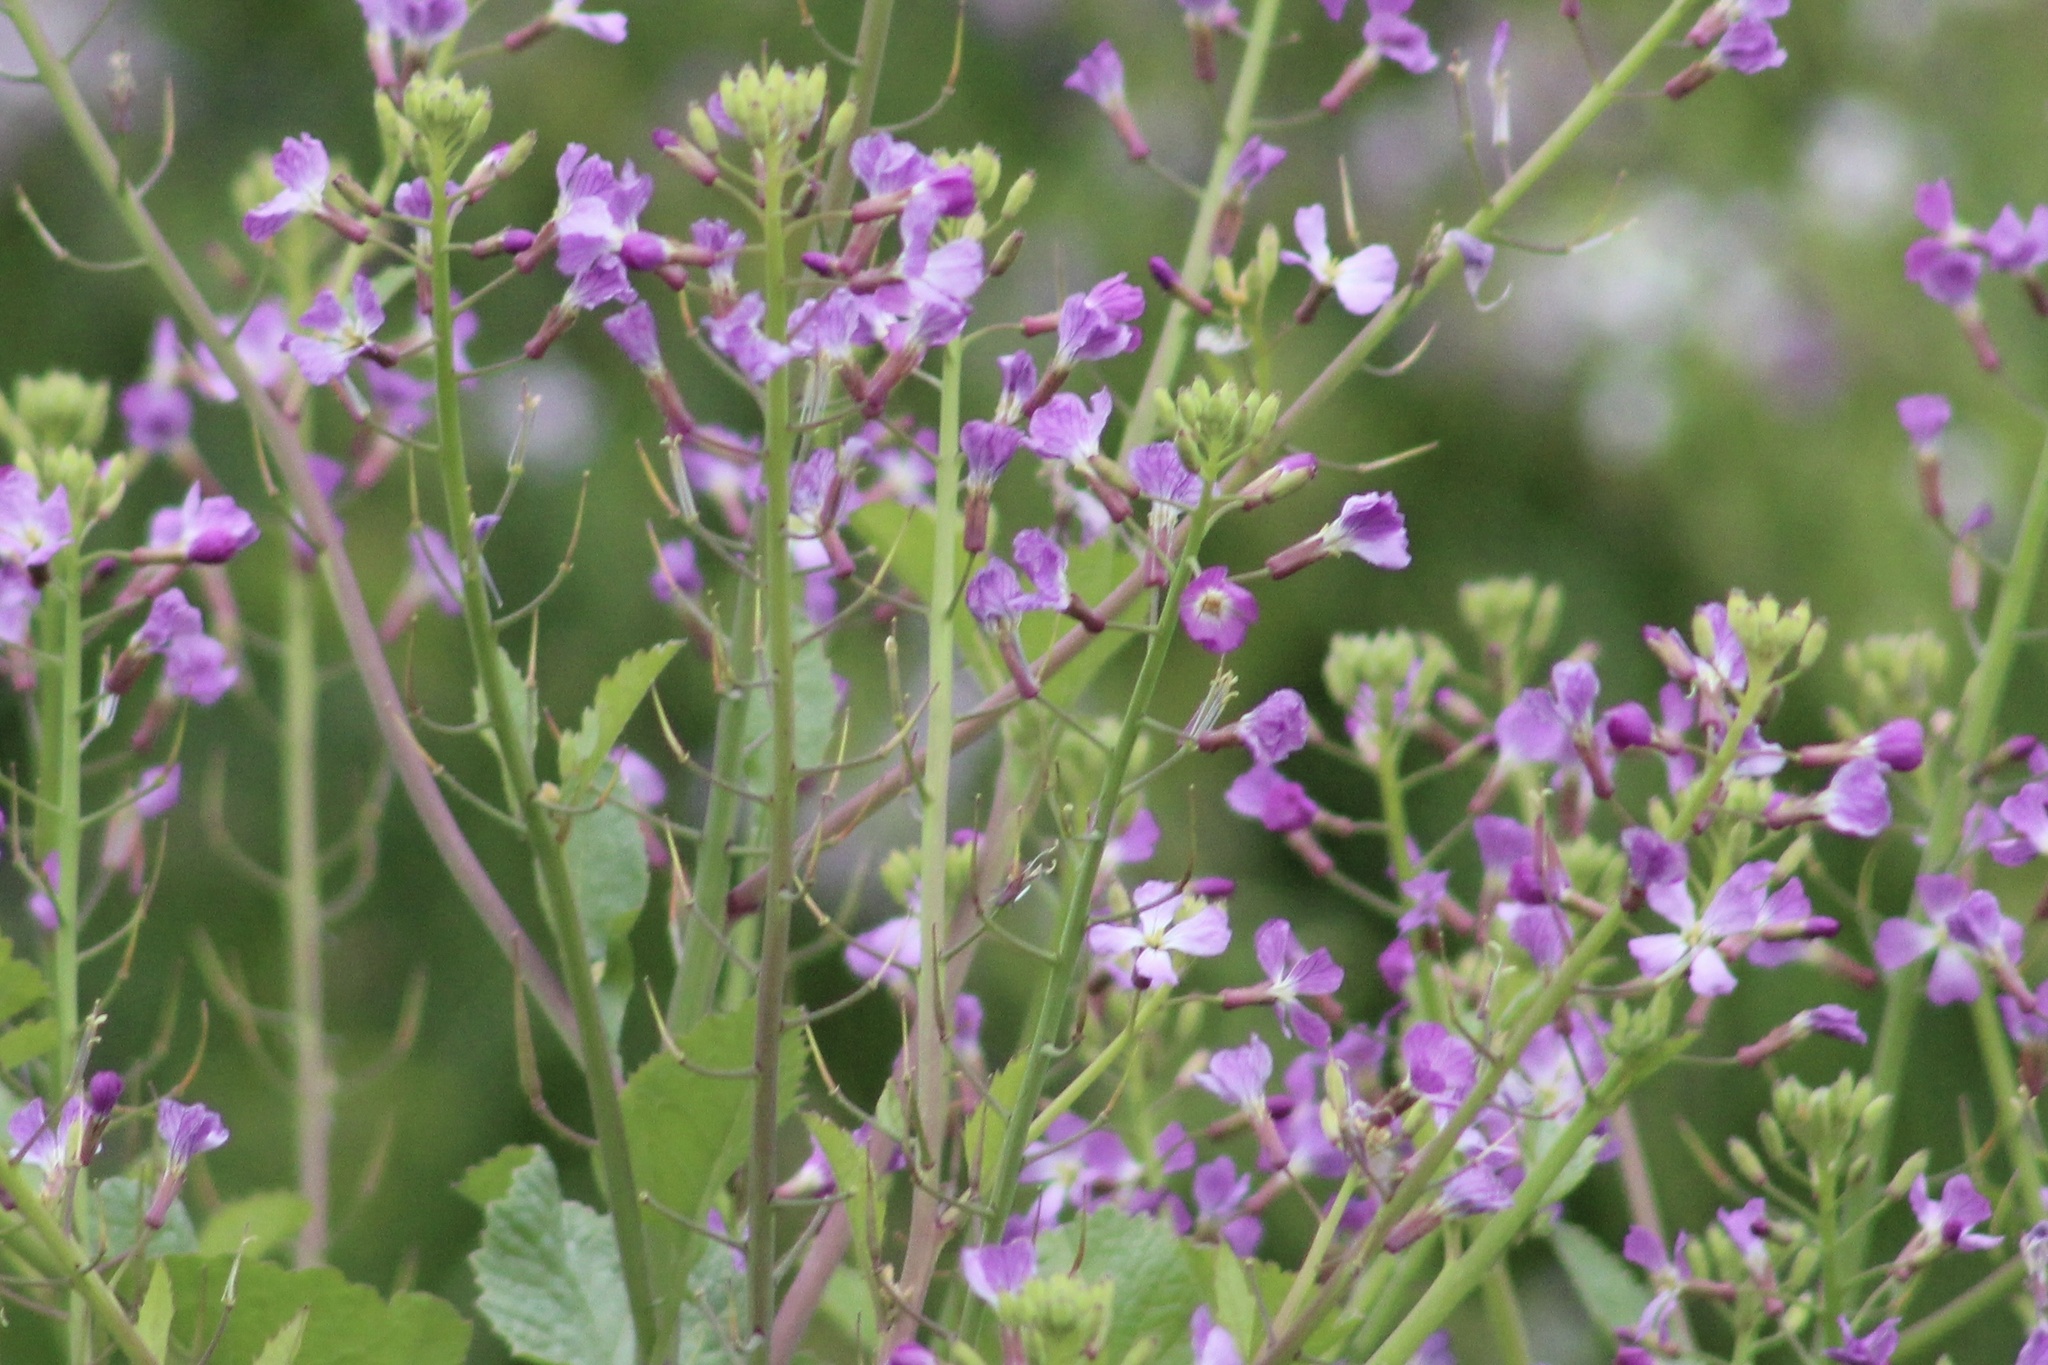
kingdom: Plantae
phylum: Tracheophyta
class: Magnoliopsida
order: Brassicales
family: Brassicaceae
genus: Raphanus
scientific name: Raphanus sativus
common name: Cultivated radish
